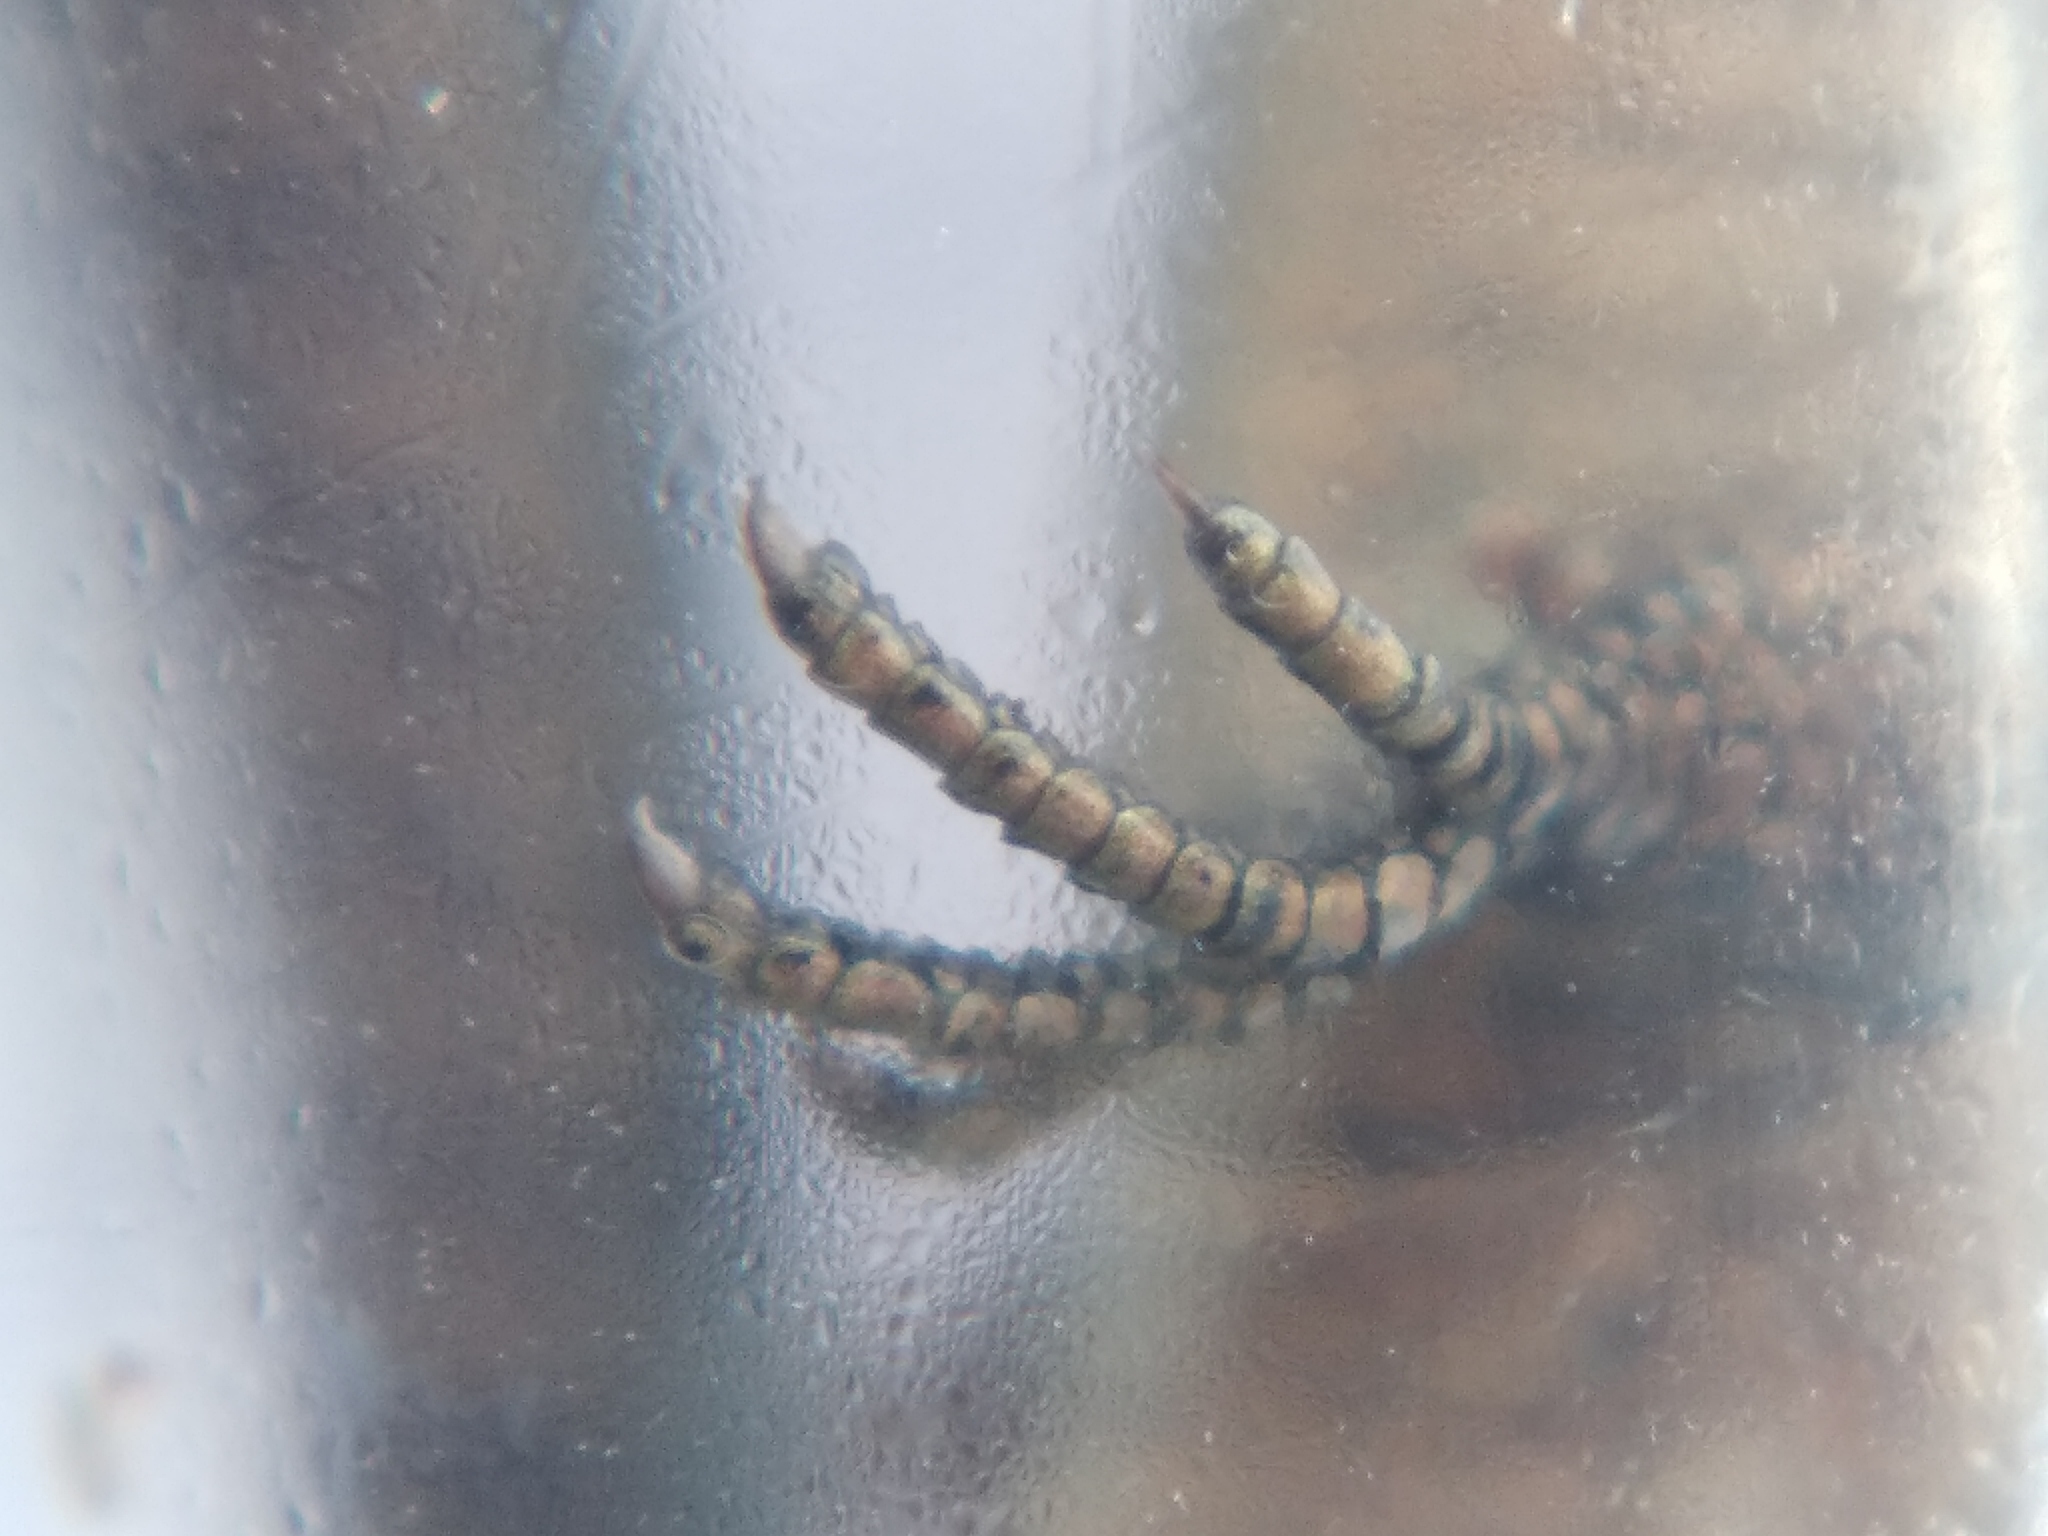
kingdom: Animalia
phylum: Chordata
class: Squamata
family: Lacertidae
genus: Zootoca
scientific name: Zootoca vivipara
